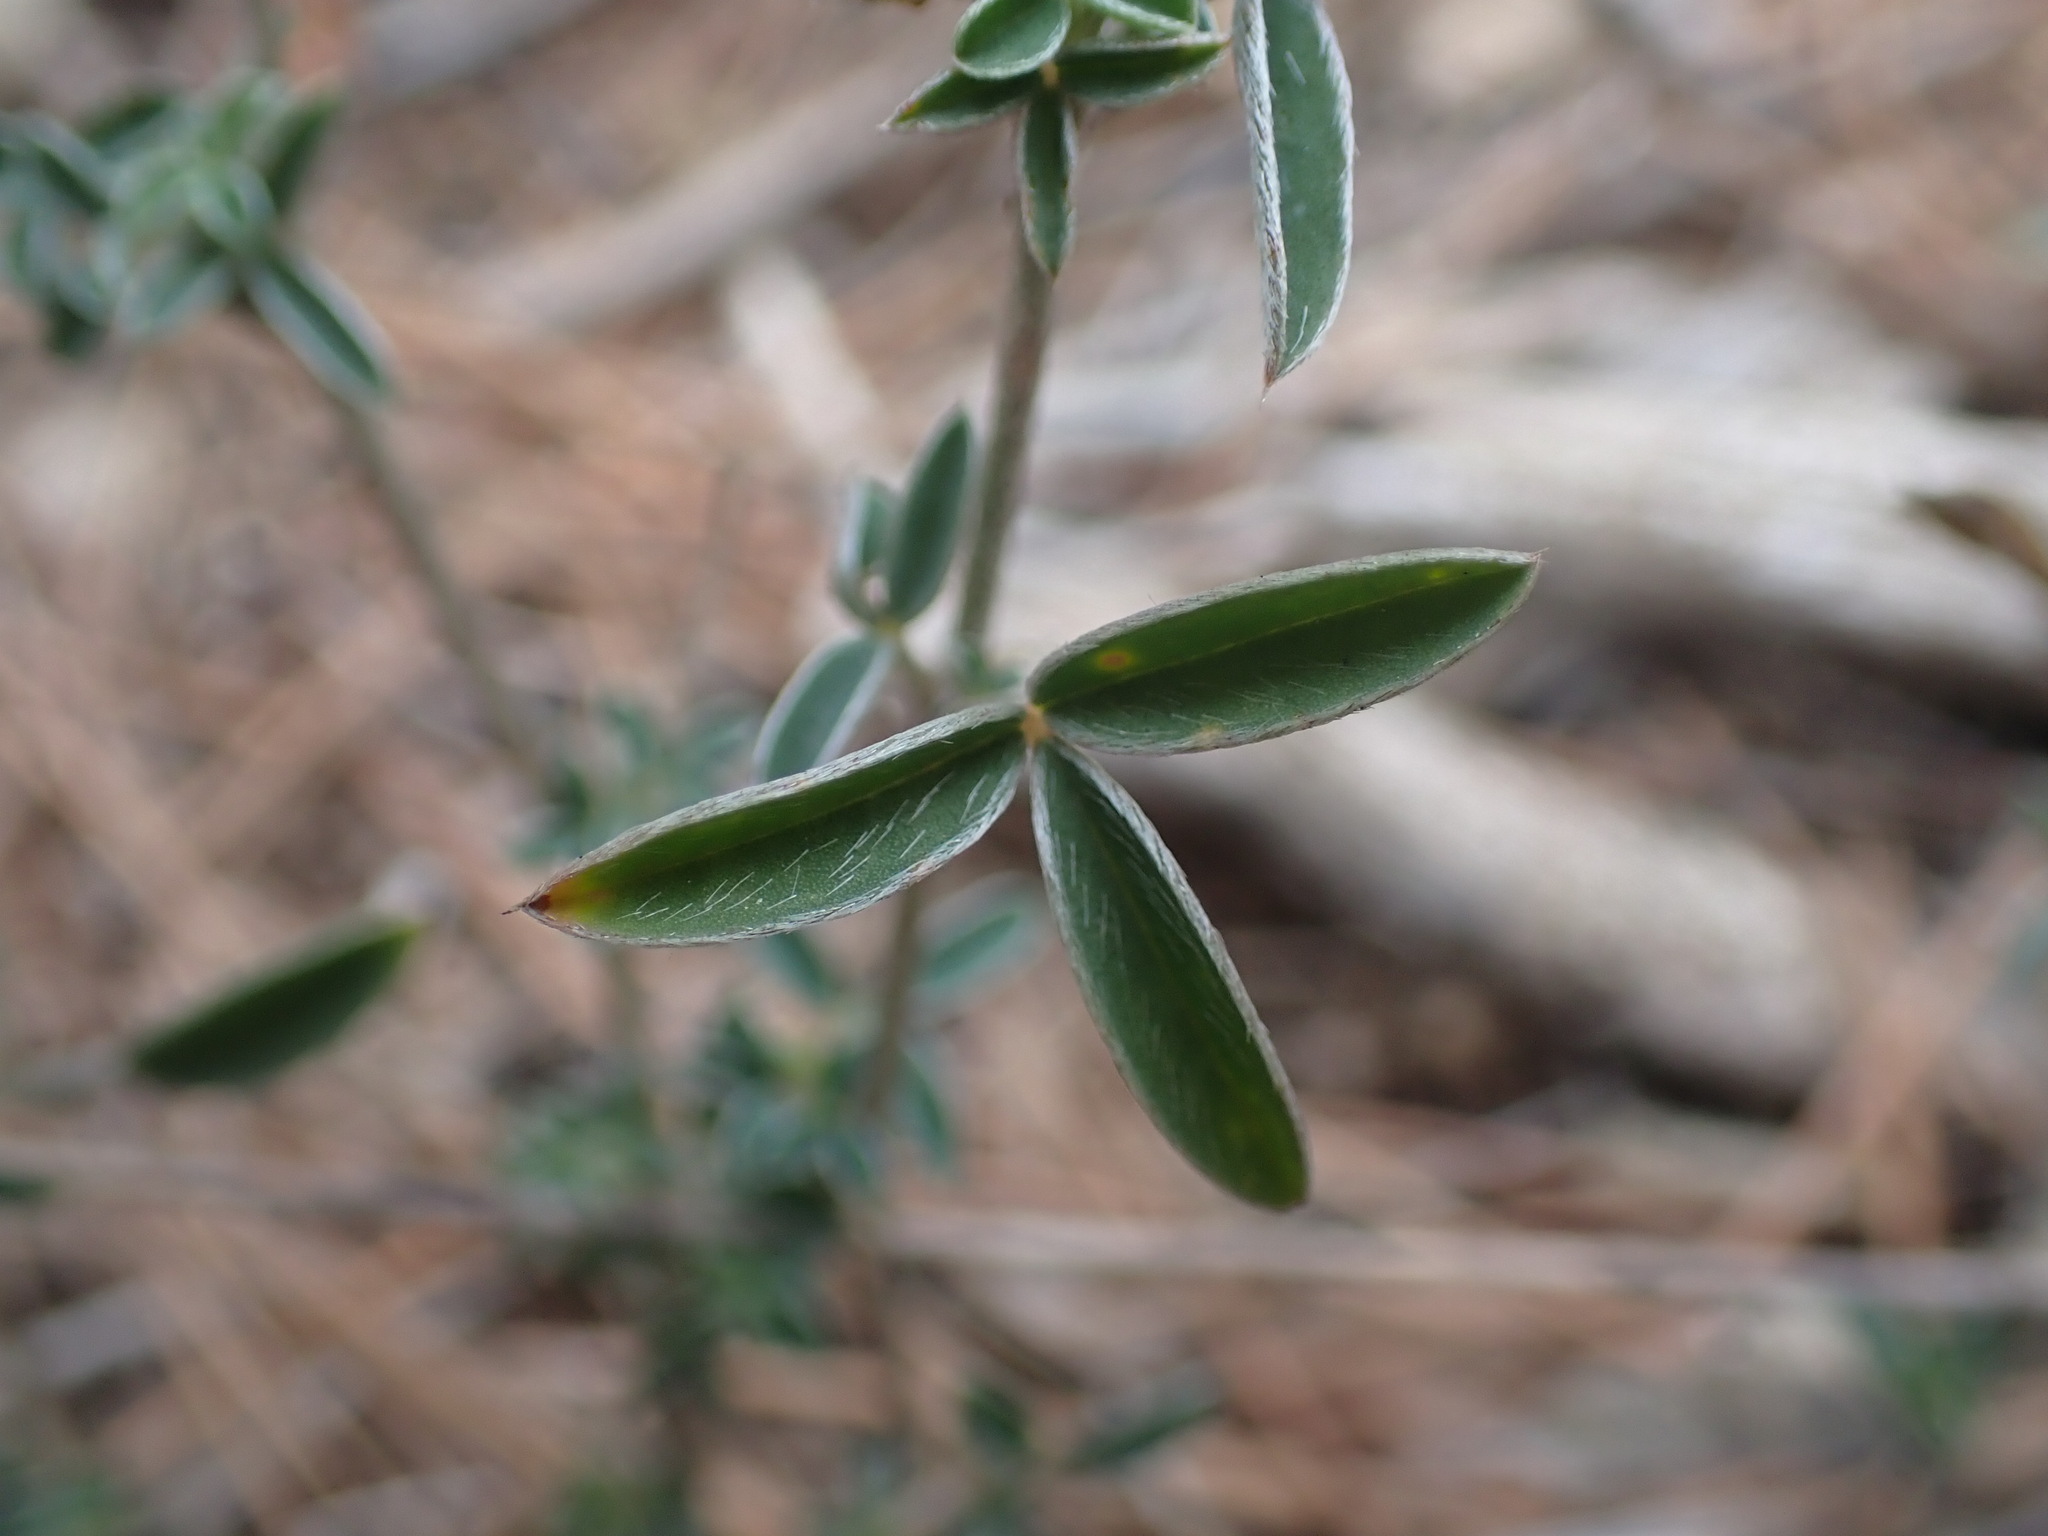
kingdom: Plantae
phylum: Tracheophyta
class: Magnoliopsida
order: Fabales
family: Fabaceae
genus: Argyrolobium
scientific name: Argyrolobium zanonii
